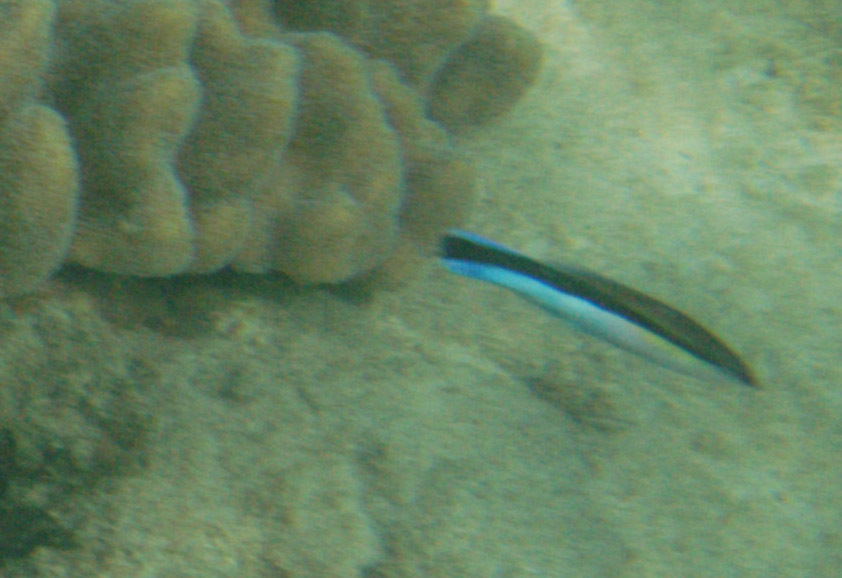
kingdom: Animalia
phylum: Chordata
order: Perciformes
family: Labridae
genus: Labroides
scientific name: Labroides dimidiatus
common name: Blue diesel wrasse
